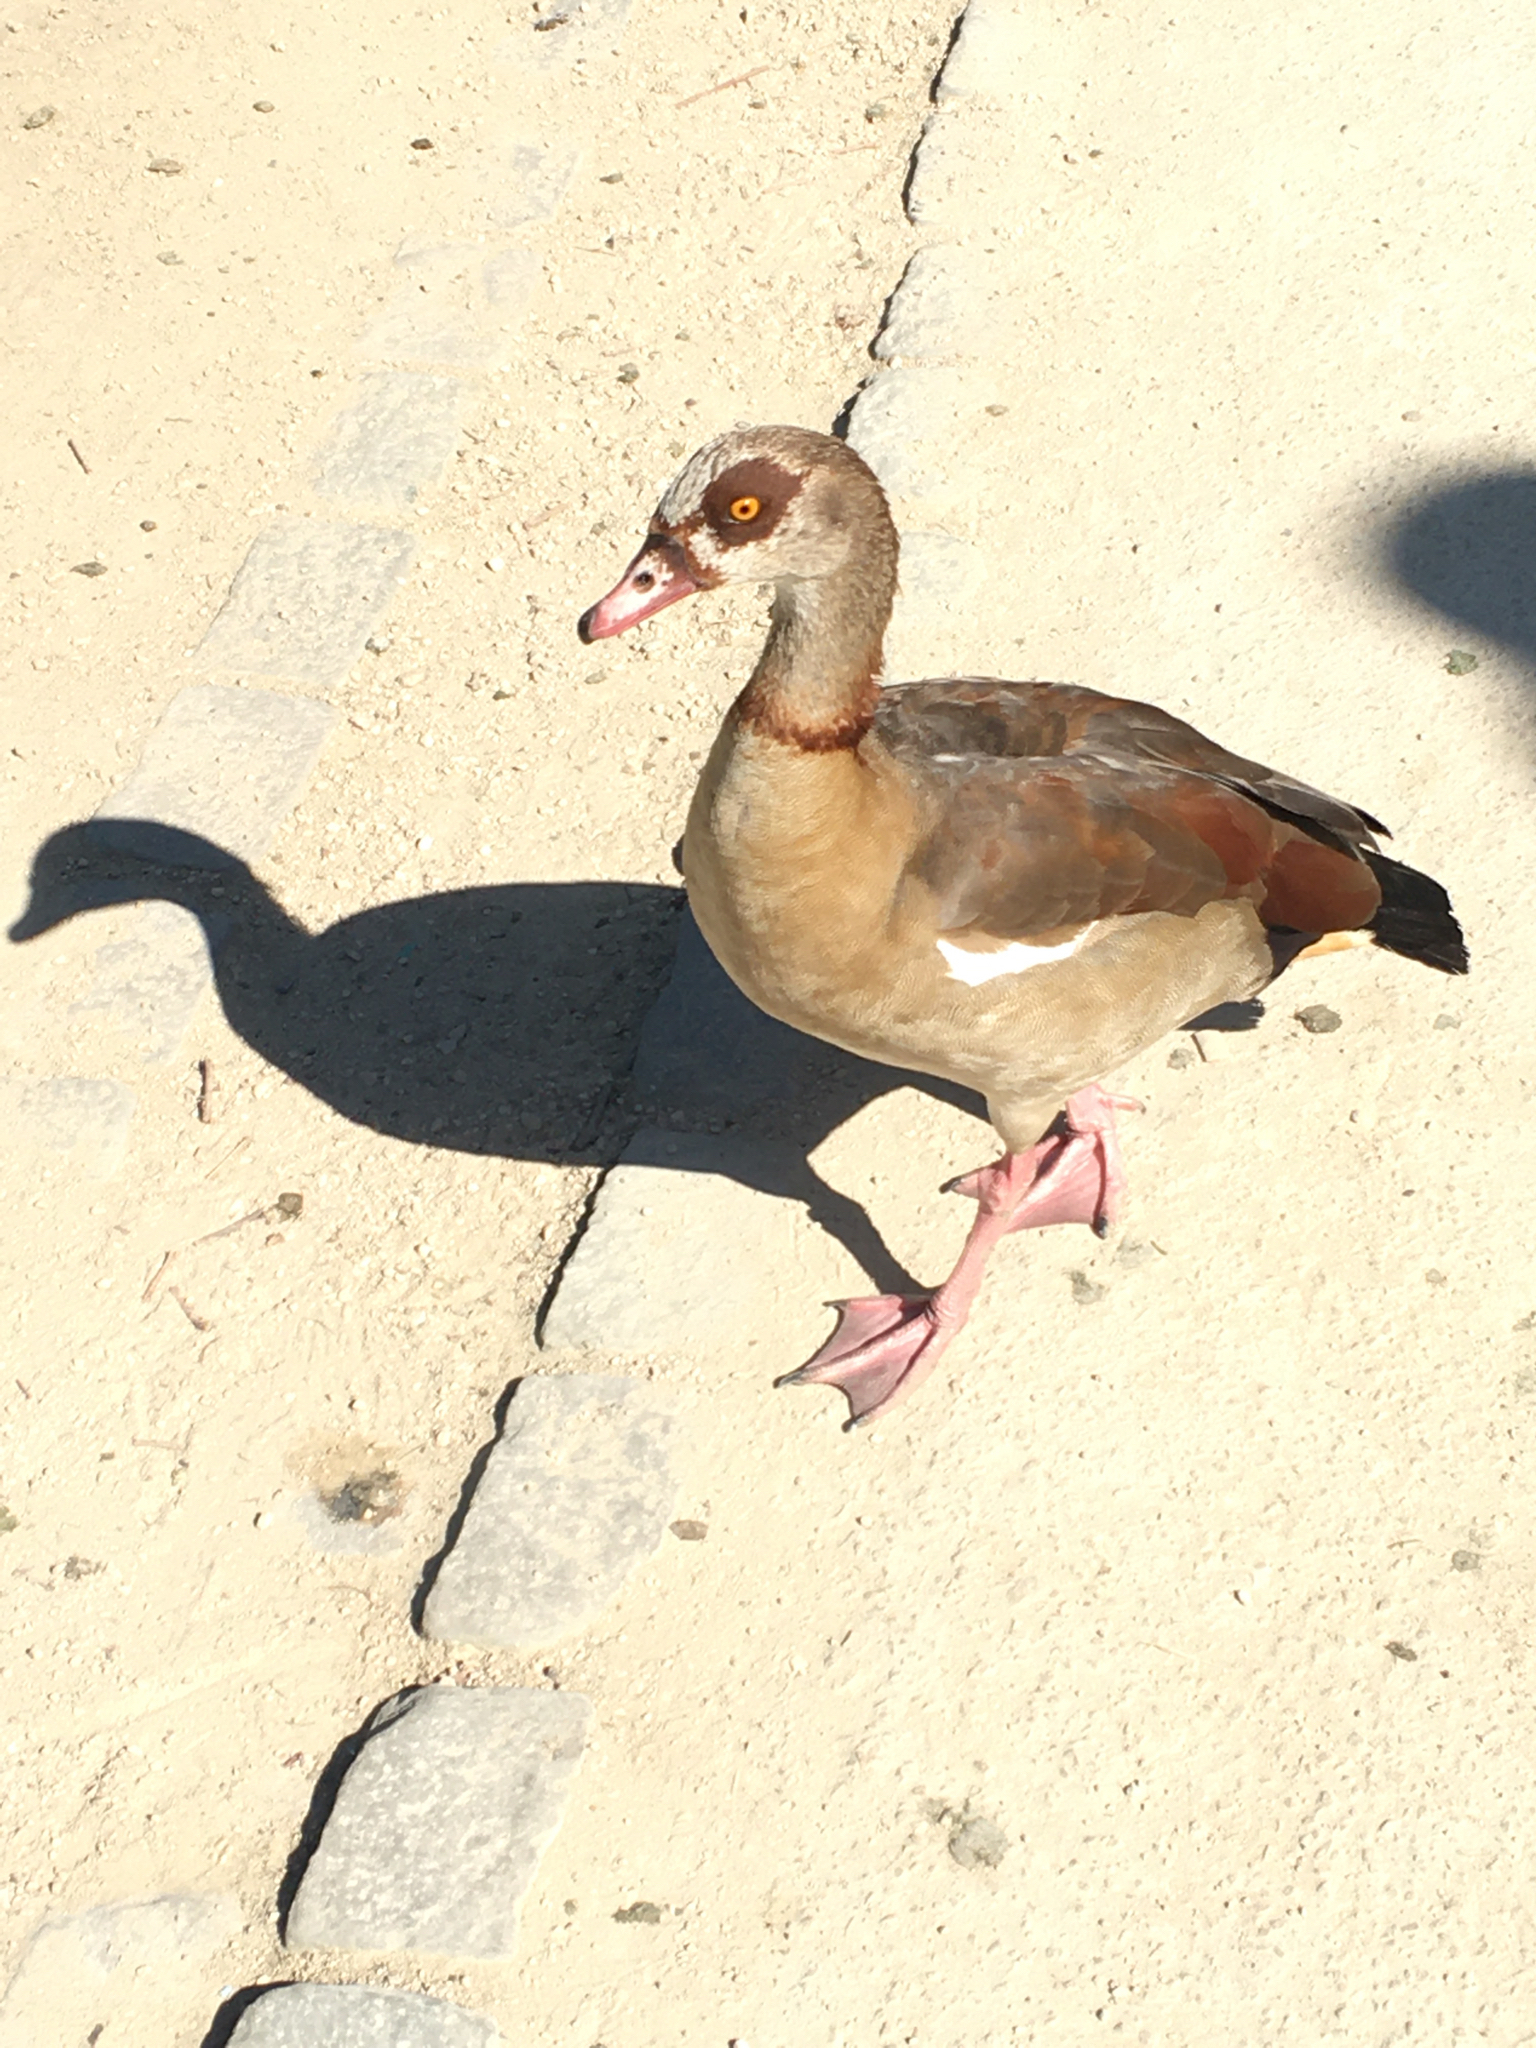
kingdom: Animalia
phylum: Chordata
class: Aves
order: Anseriformes
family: Anatidae
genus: Alopochen
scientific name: Alopochen aegyptiaca
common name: Egyptian goose
